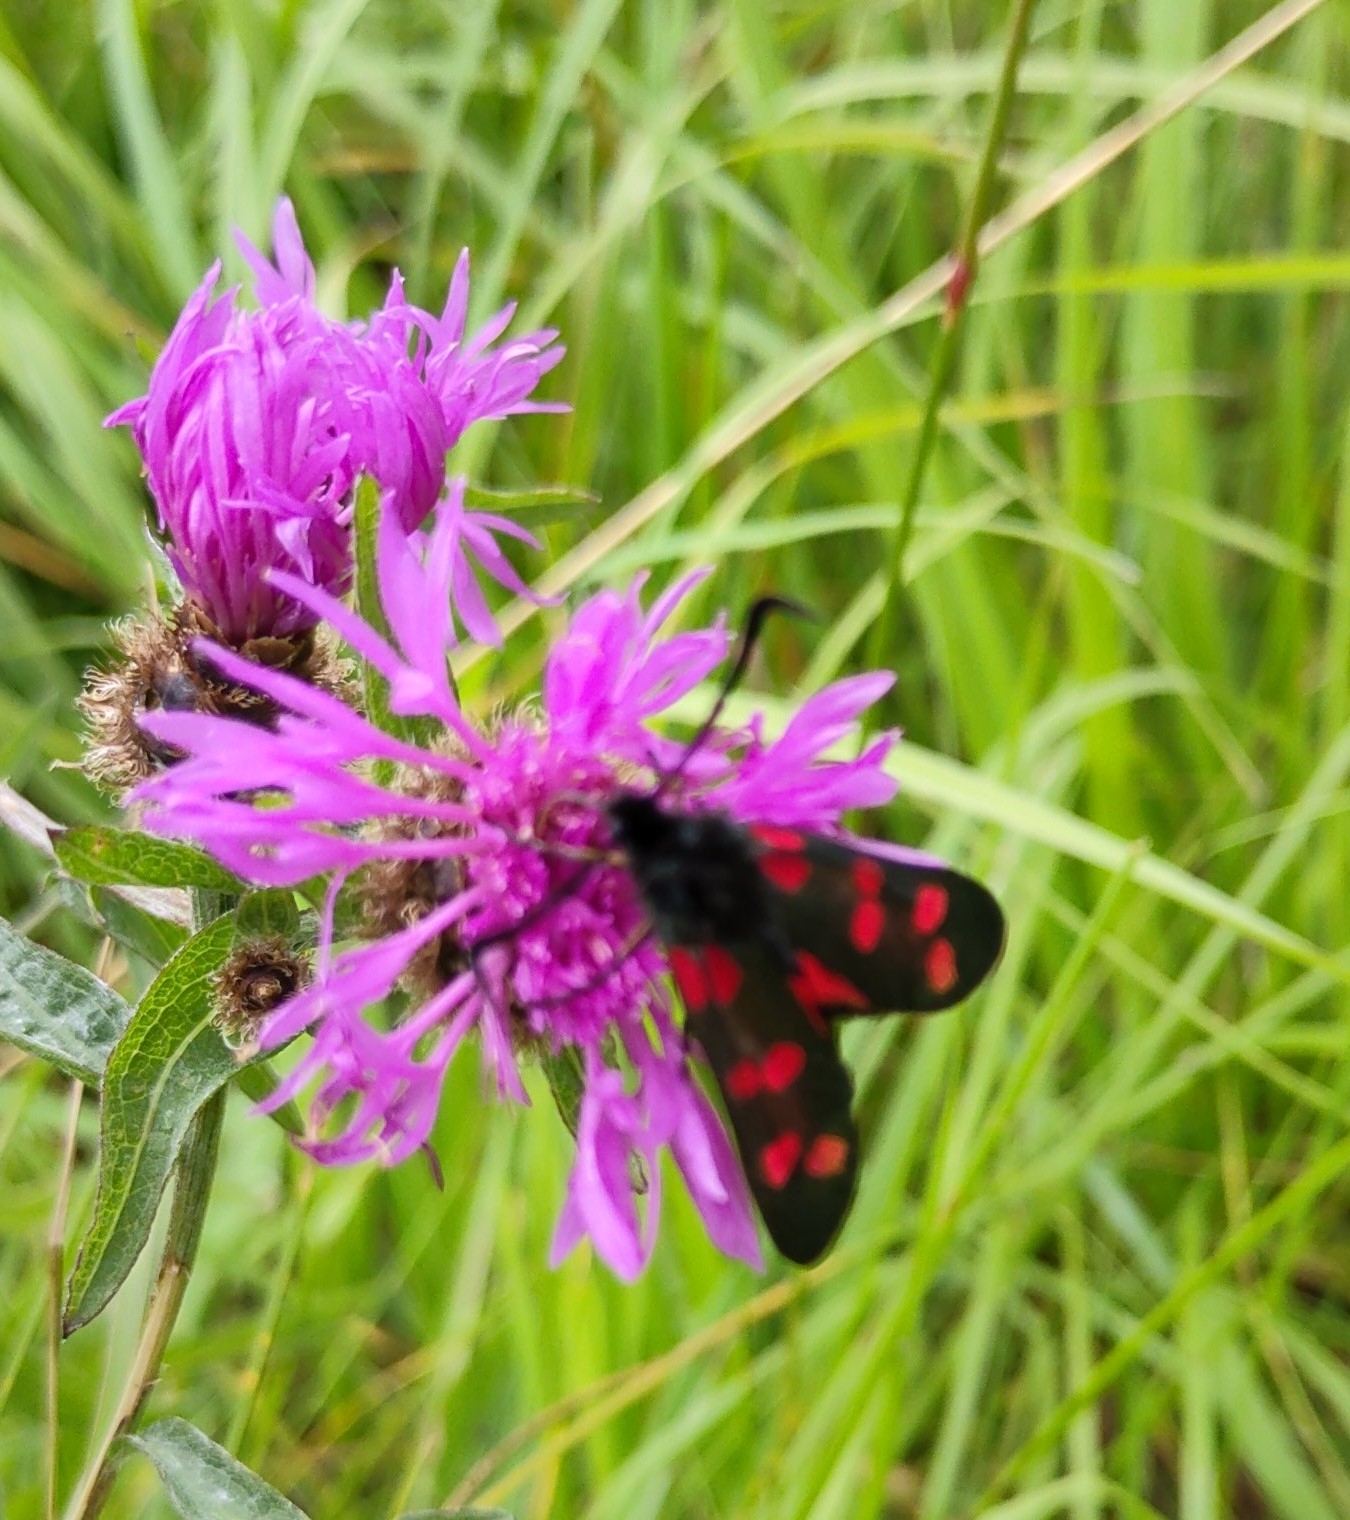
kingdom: Animalia
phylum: Arthropoda
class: Insecta
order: Lepidoptera
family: Zygaenidae
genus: Zygaena
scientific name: Zygaena filipendulae
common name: Six-spot burnet
